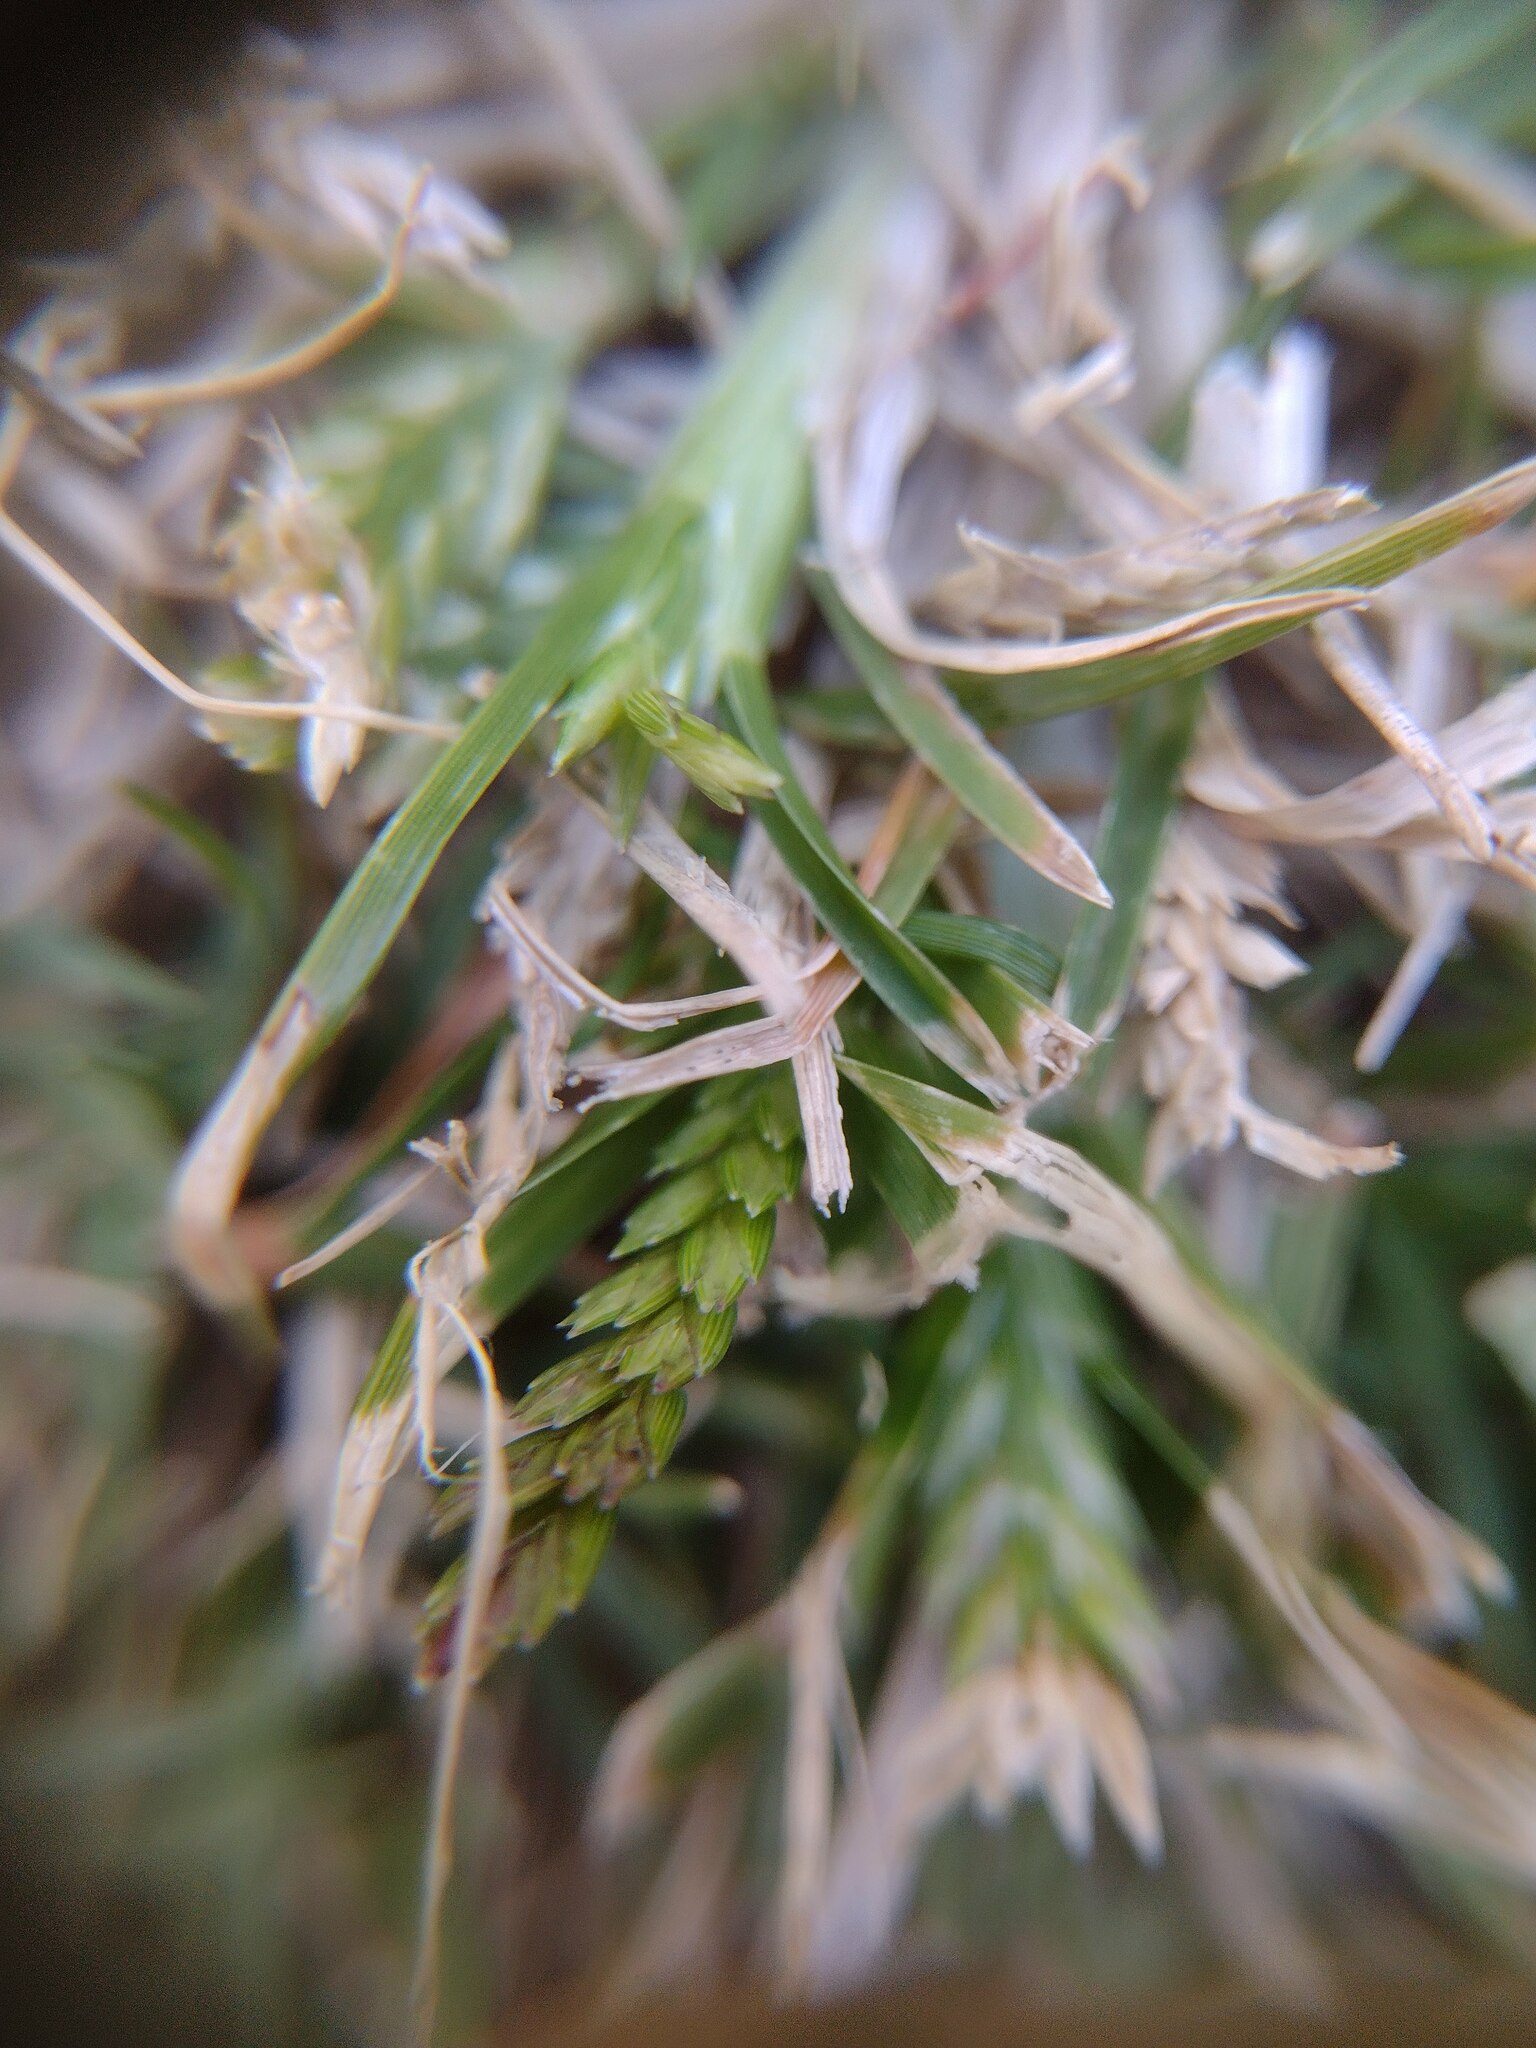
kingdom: Plantae
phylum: Tracheophyta
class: Liliopsida
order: Poales
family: Poaceae
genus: Eleusine
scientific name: Eleusine indica
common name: Yard-grass
